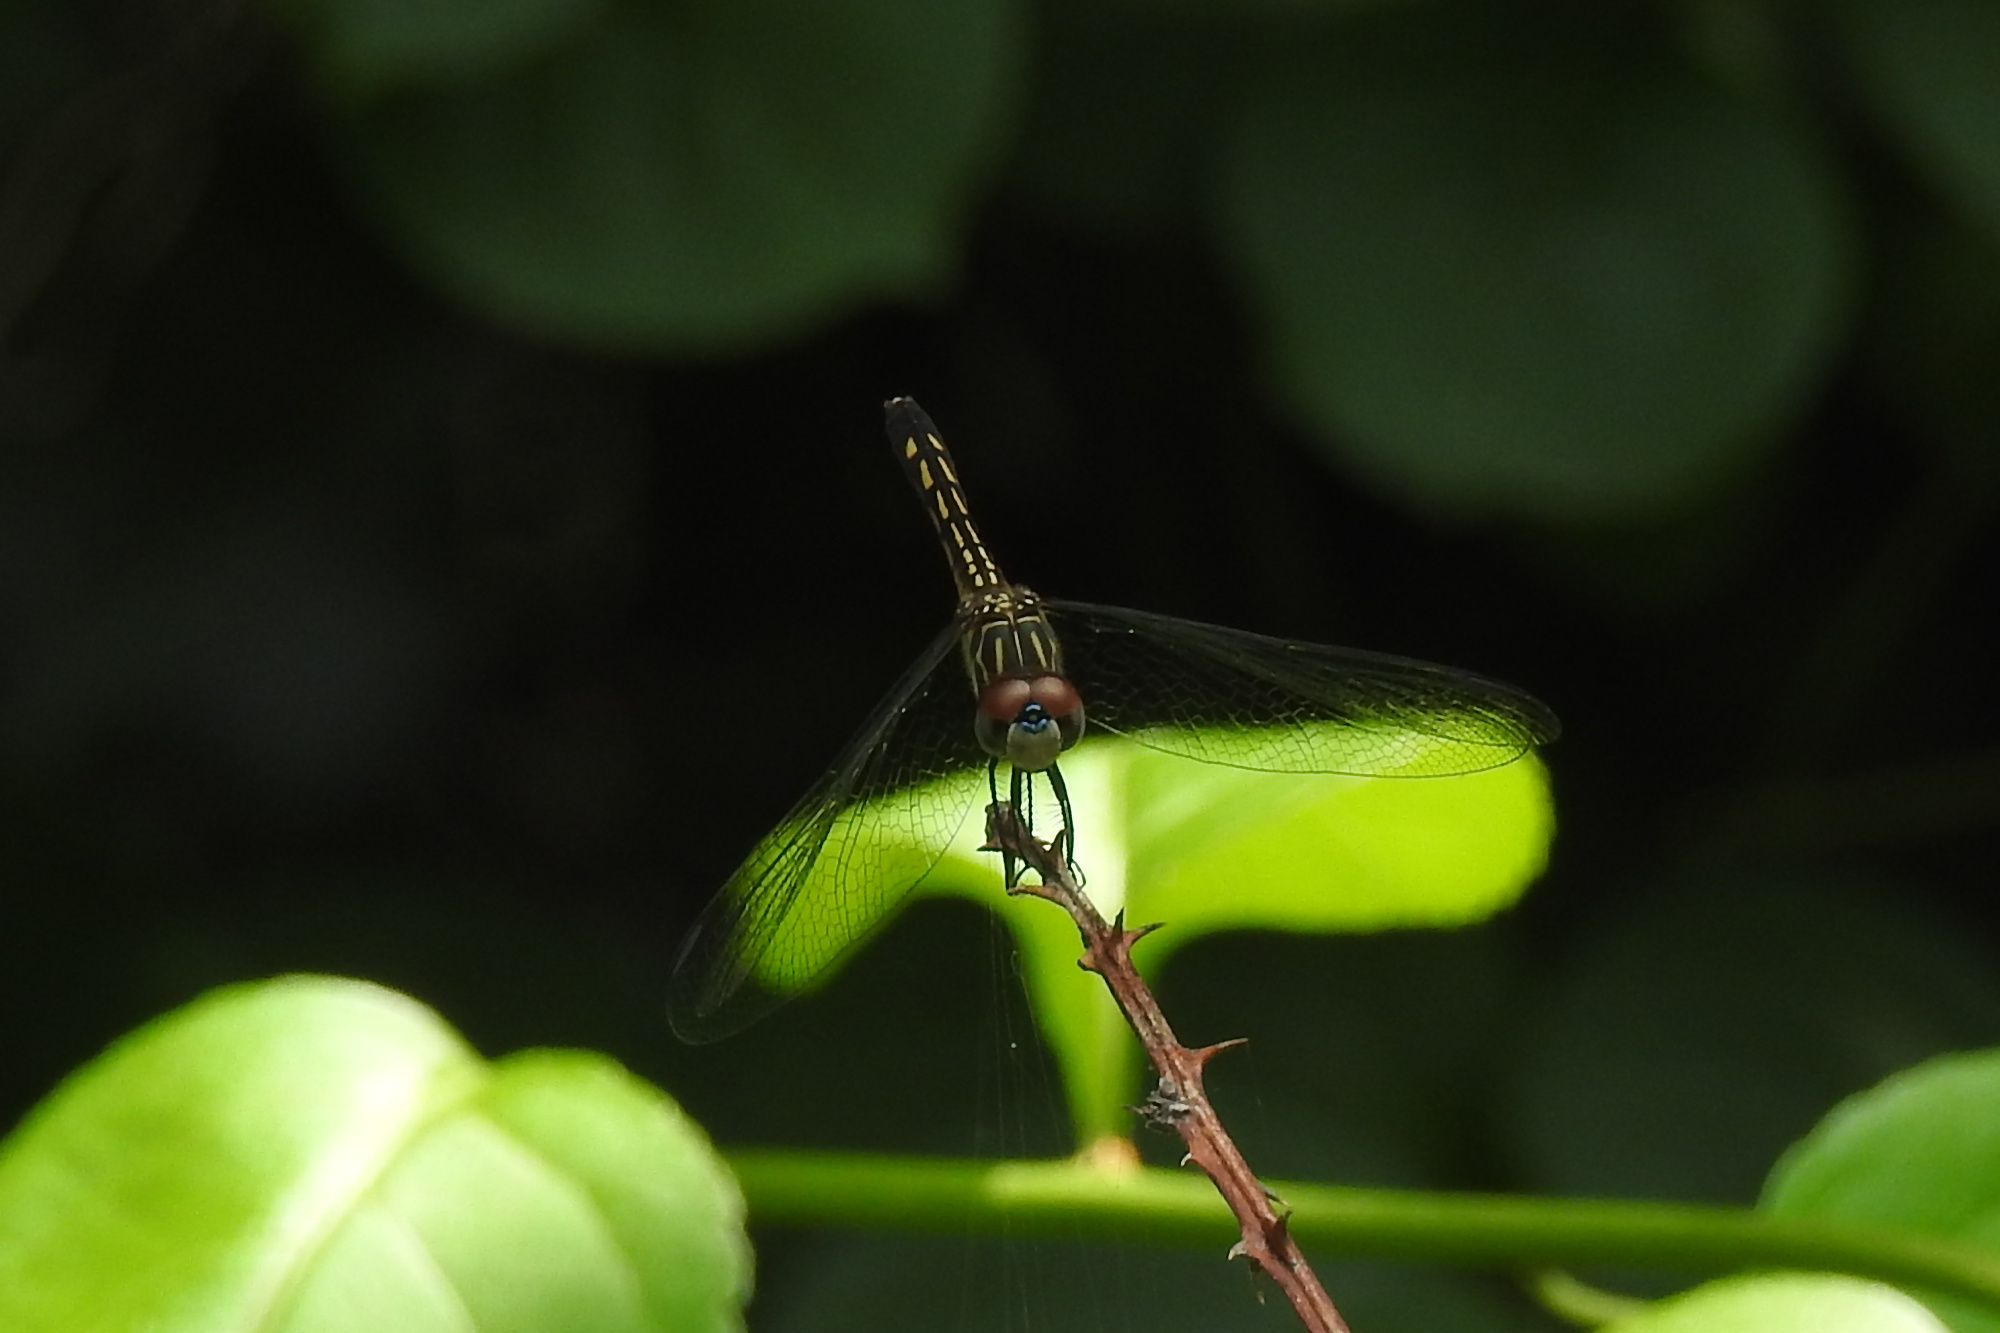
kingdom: Animalia
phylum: Arthropoda
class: Insecta
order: Odonata
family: Libellulidae
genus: Pachydiplax
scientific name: Pachydiplax longipennis
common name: Blue dasher
